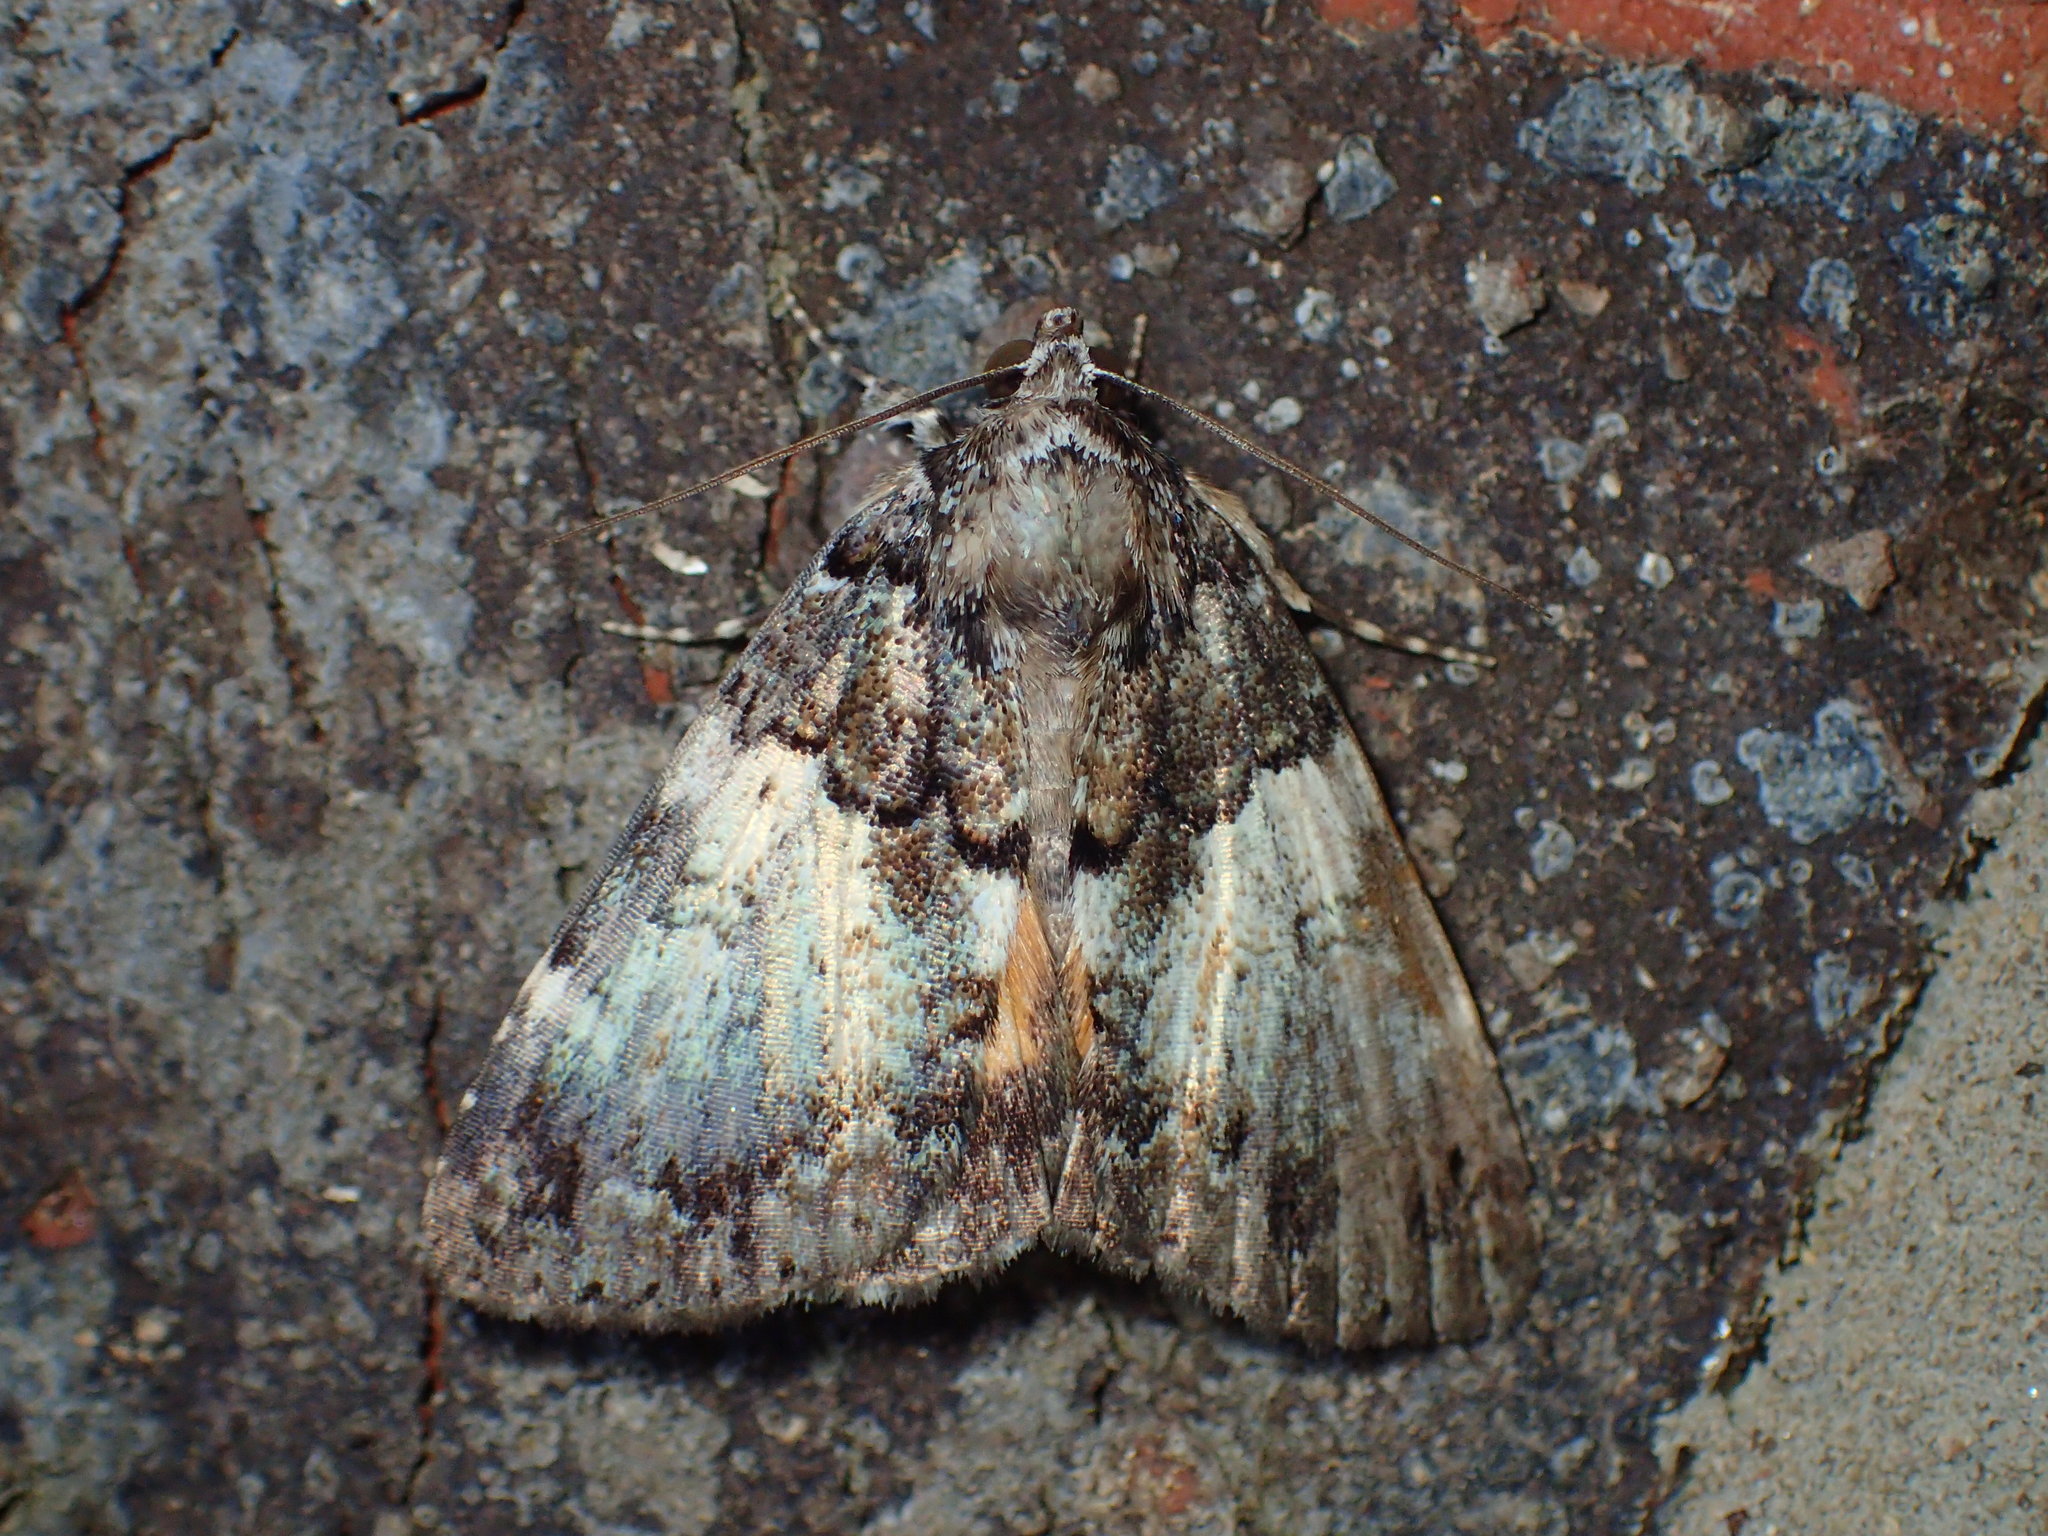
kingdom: Animalia
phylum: Arthropoda
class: Insecta
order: Lepidoptera
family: Erebidae
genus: Allotria
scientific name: Allotria elonympha
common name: False underwing
